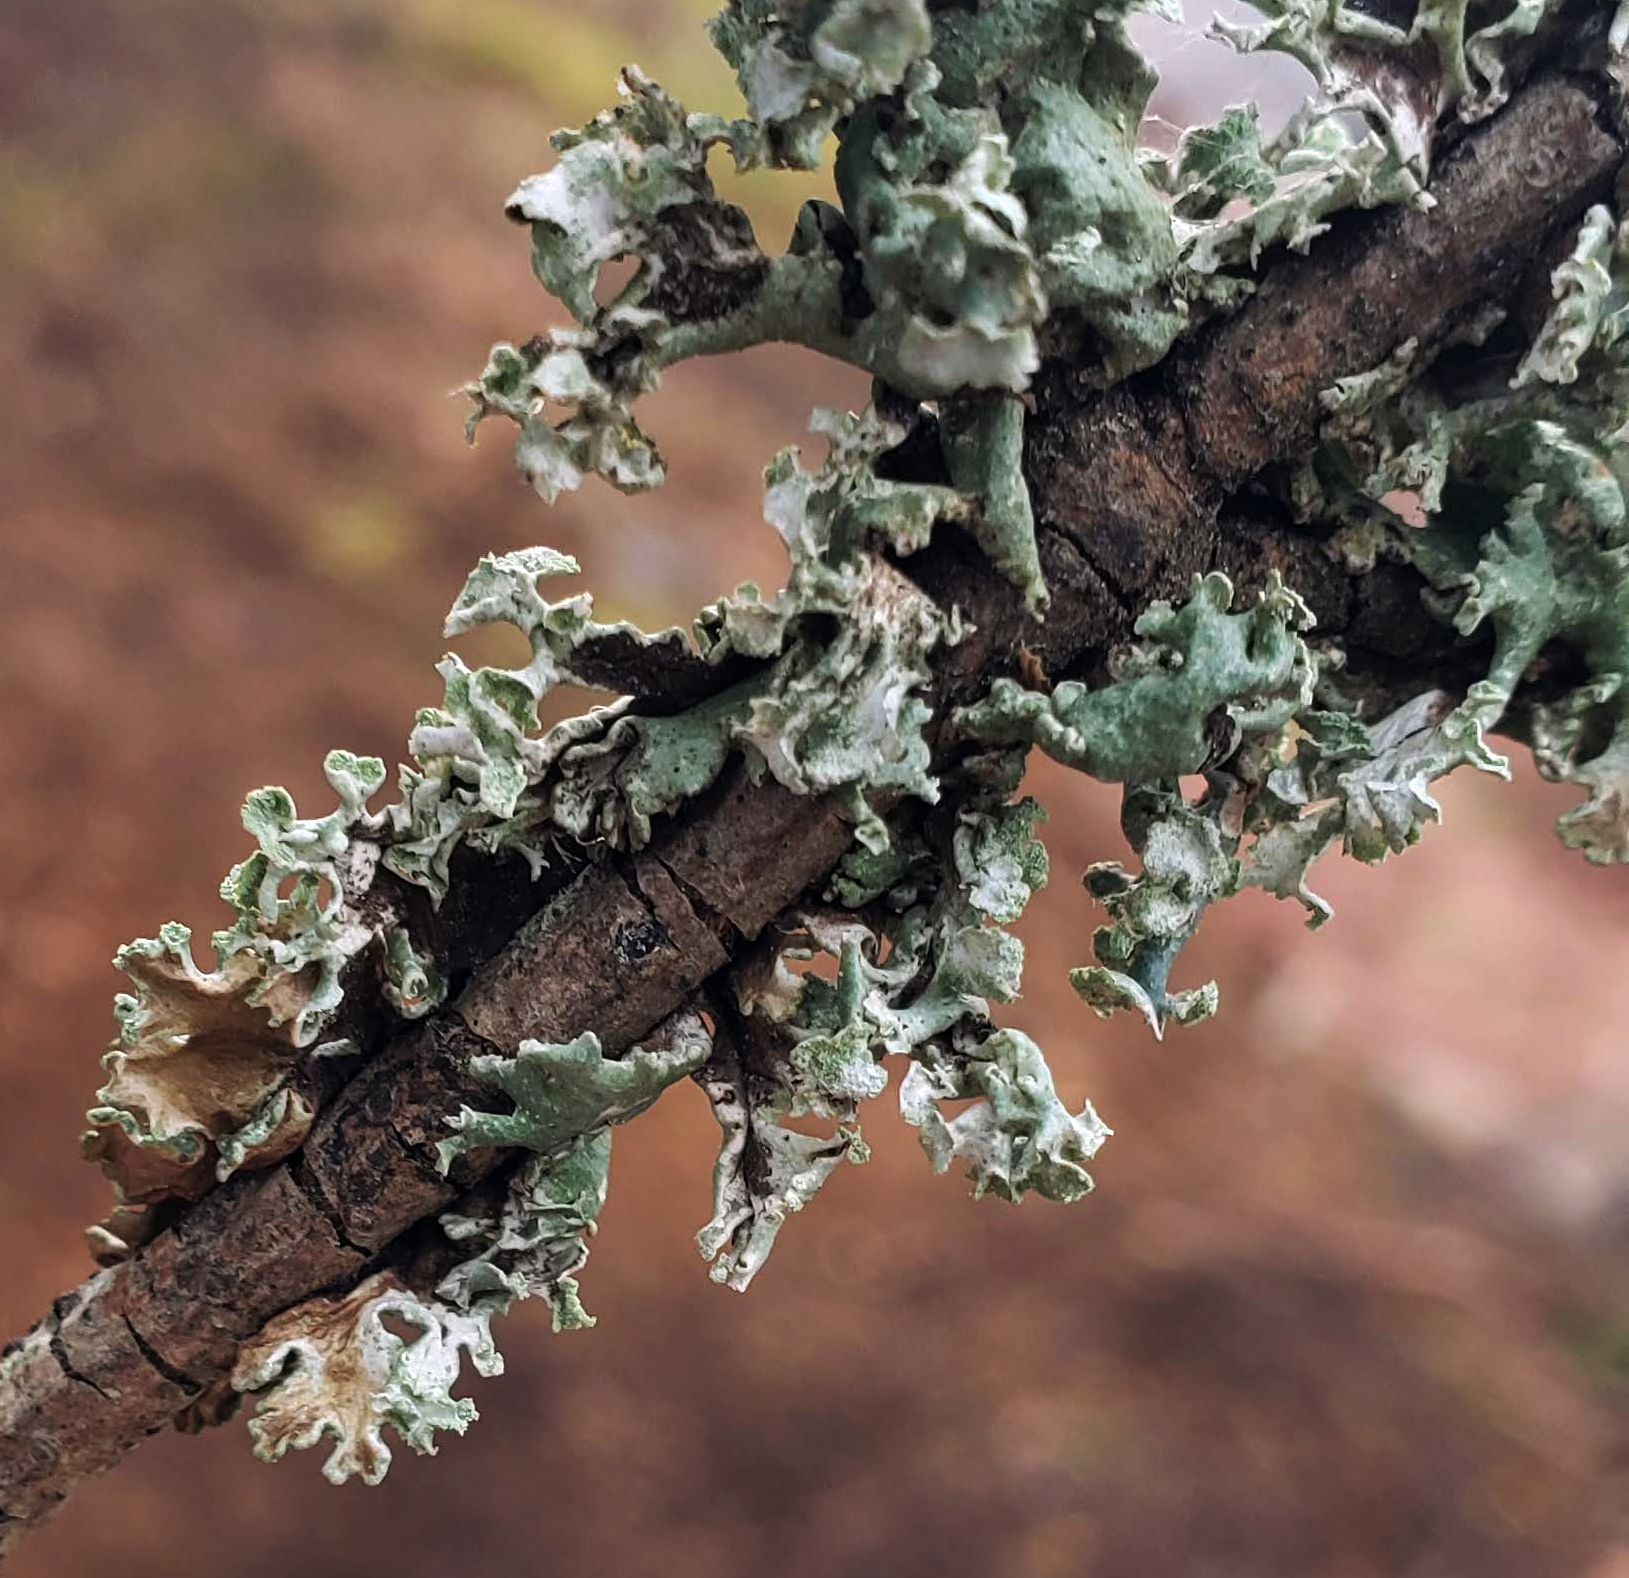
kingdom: Fungi
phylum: Ascomycota
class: Lecanoromycetes
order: Lecanorales
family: Parmeliaceae
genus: Hypogymnia
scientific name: Hypogymnia physodes
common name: Dark crottle
